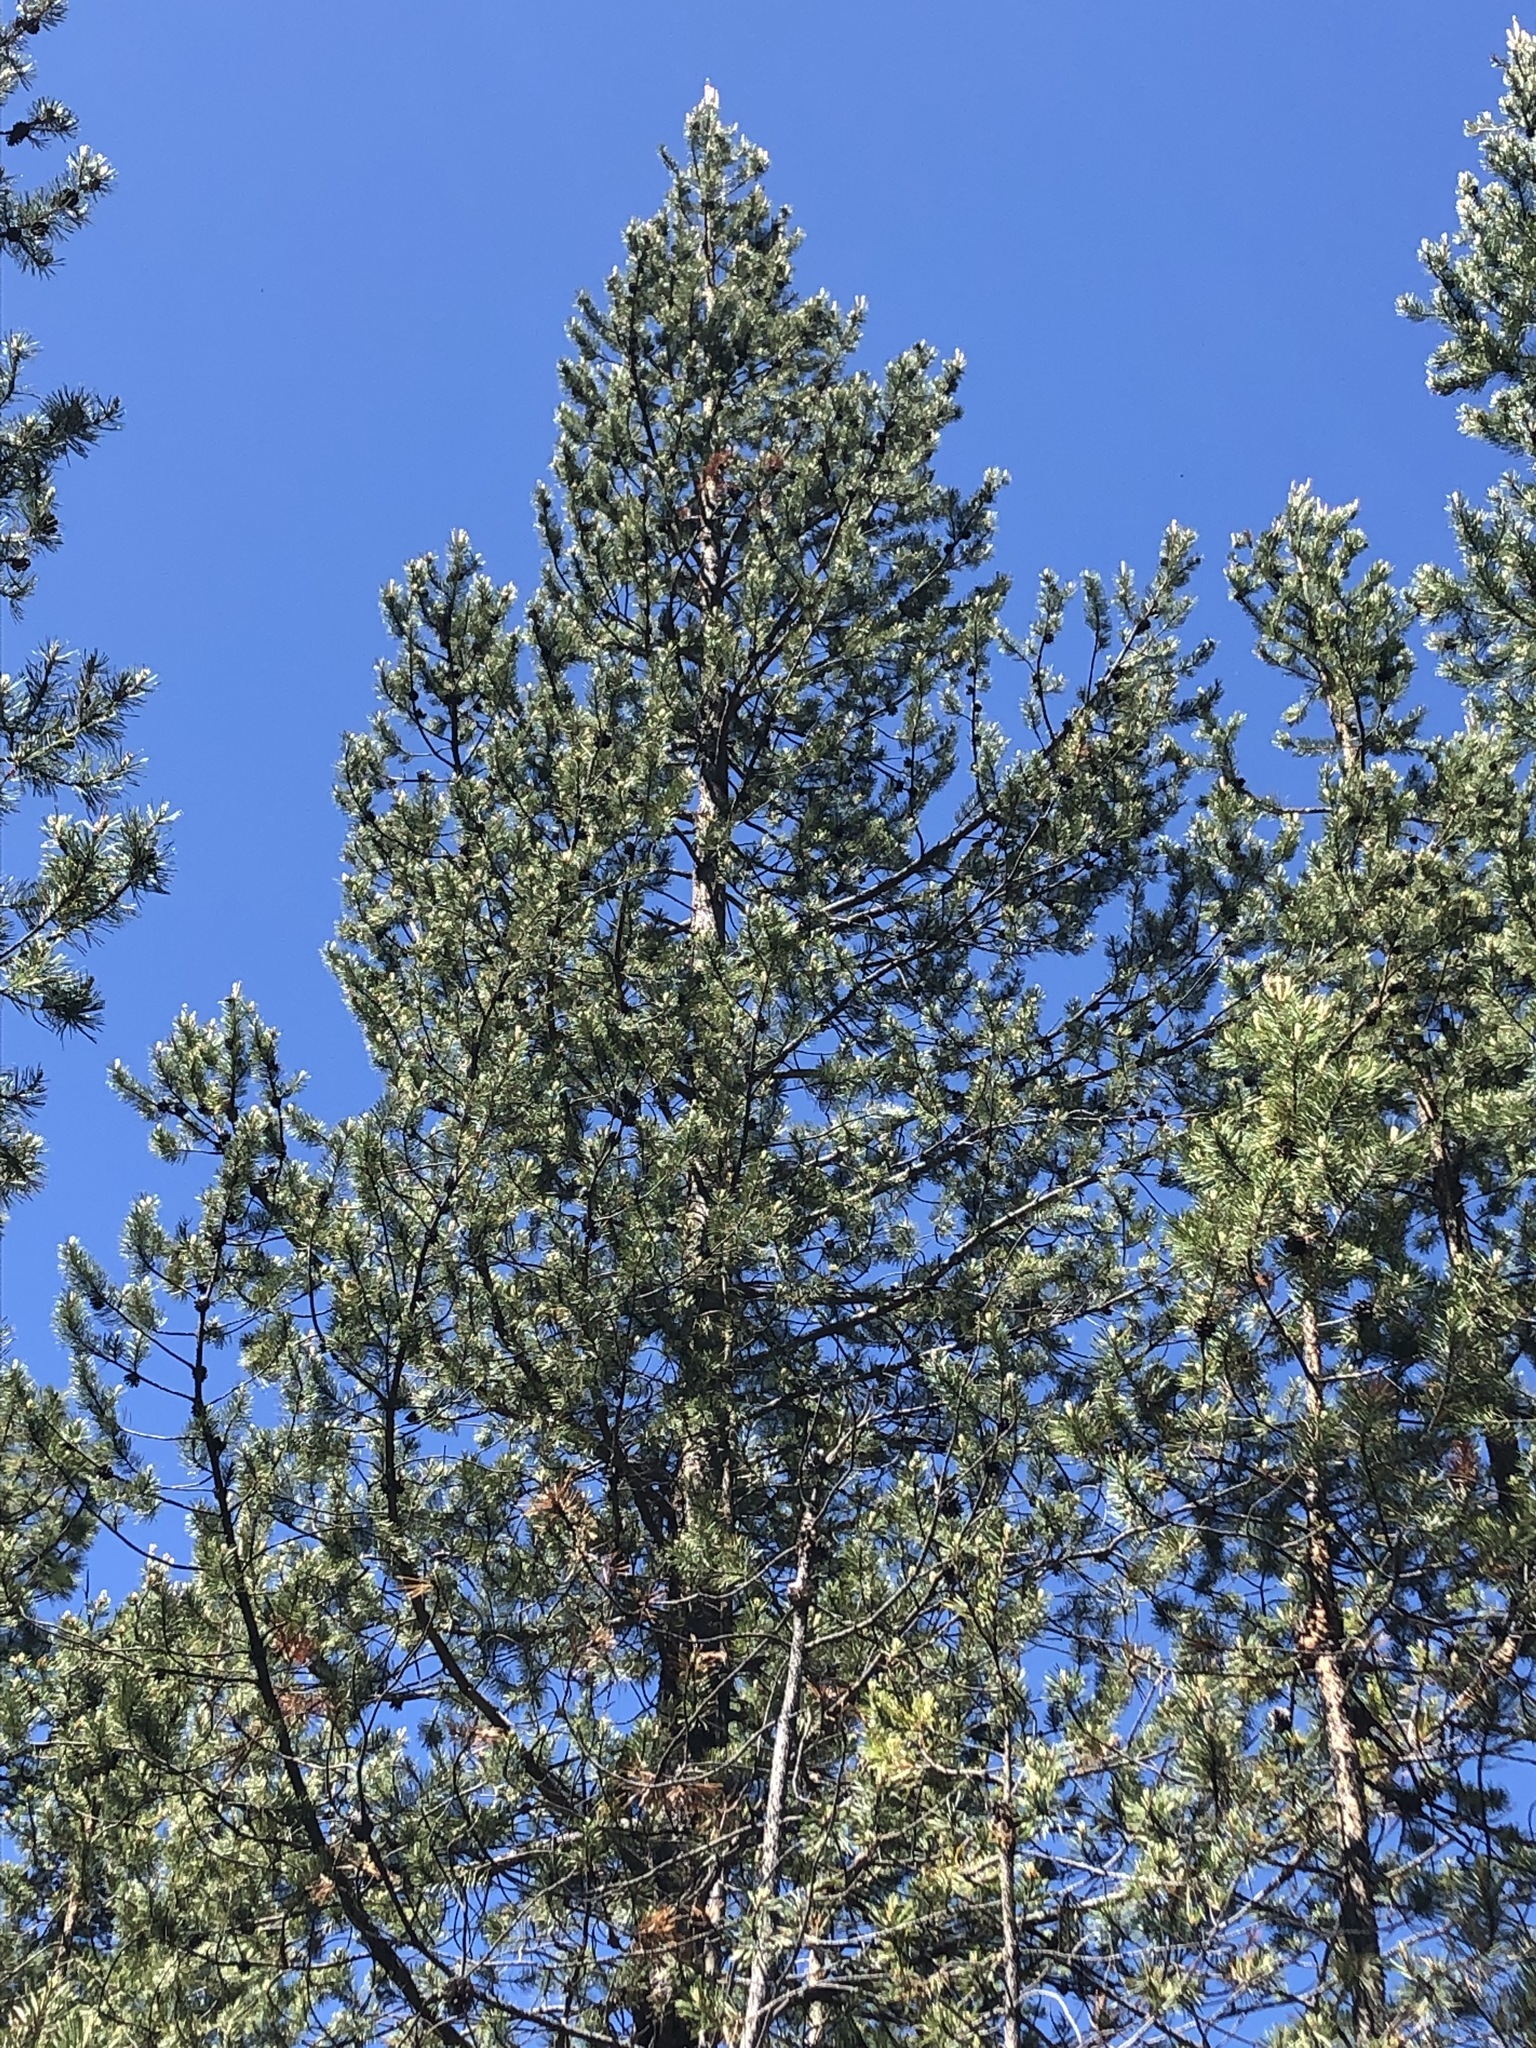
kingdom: Plantae
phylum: Tracheophyta
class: Pinopsida
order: Pinales
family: Pinaceae
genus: Pinus
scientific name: Pinus contorta
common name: Lodgepole pine
